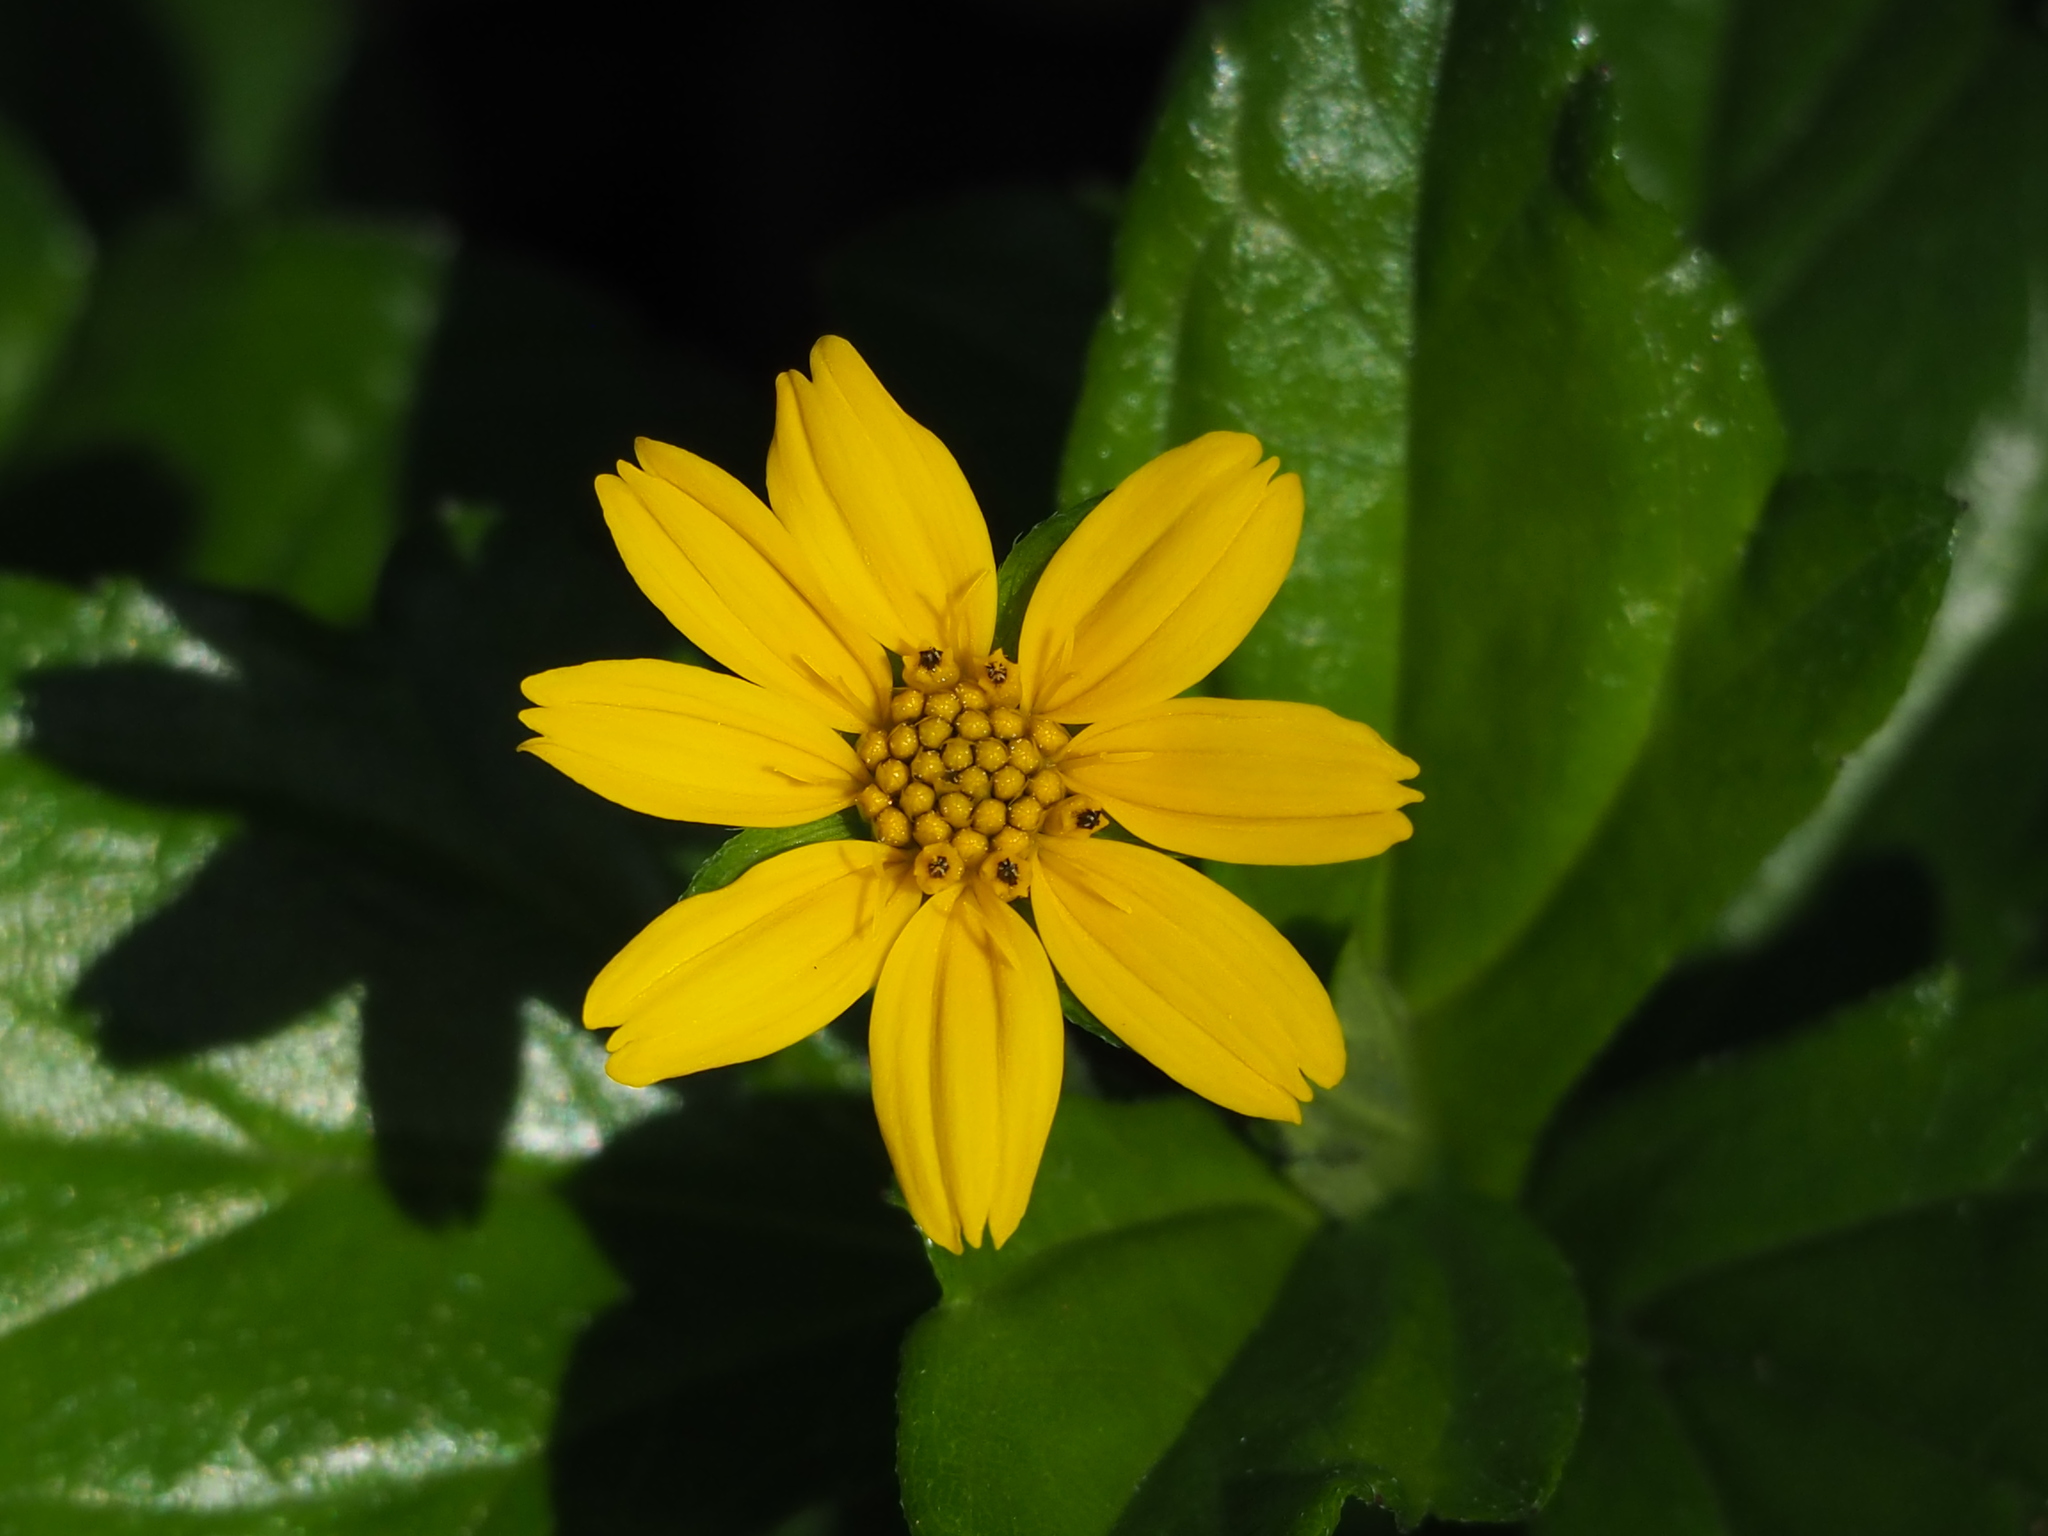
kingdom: Plantae
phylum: Tracheophyta
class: Magnoliopsida
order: Asterales
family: Asteraceae
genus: Sphagneticola
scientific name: Sphagneticola trilobata
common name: Bay biscayne creeping-oxeye
